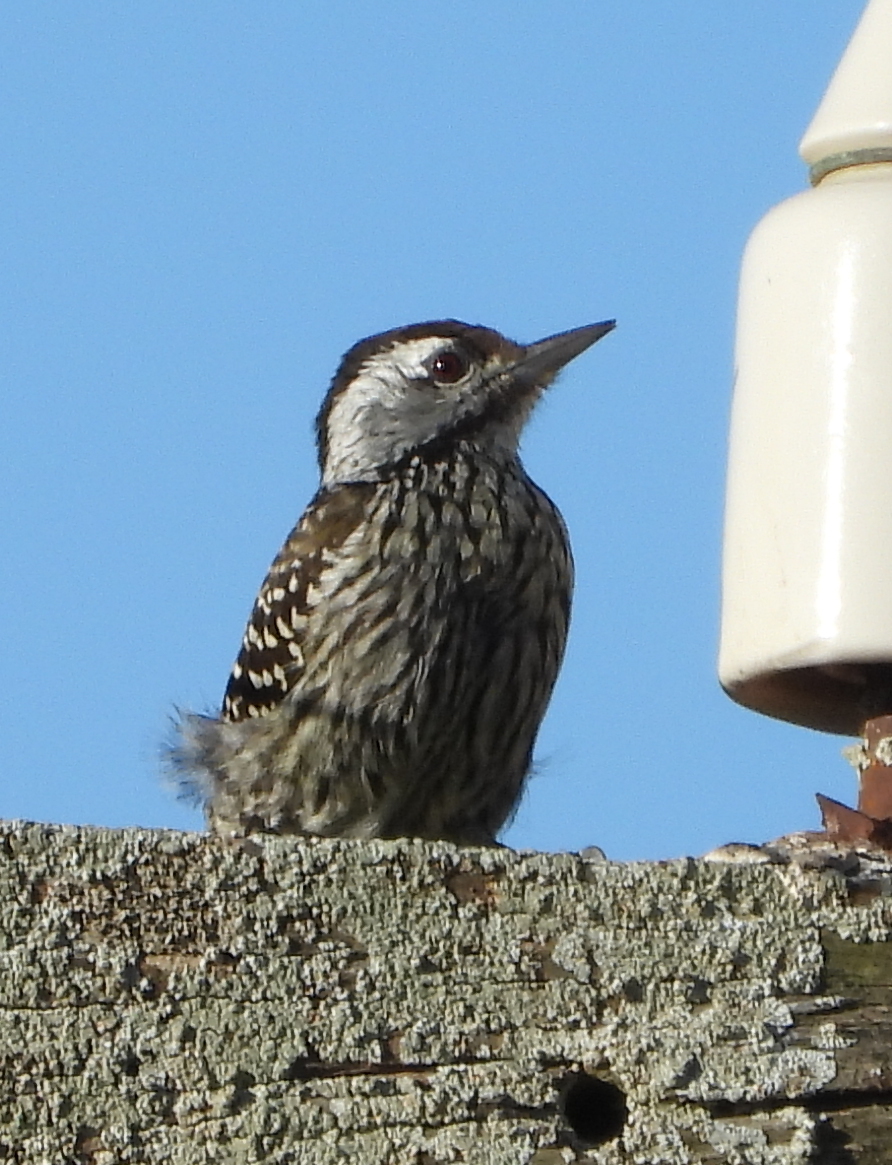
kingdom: Animalia
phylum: Chordata
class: Aves
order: Piciformes
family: Picidae
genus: Dendropicos
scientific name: Dendropicos fuscescens
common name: Cardinal woodpecker
